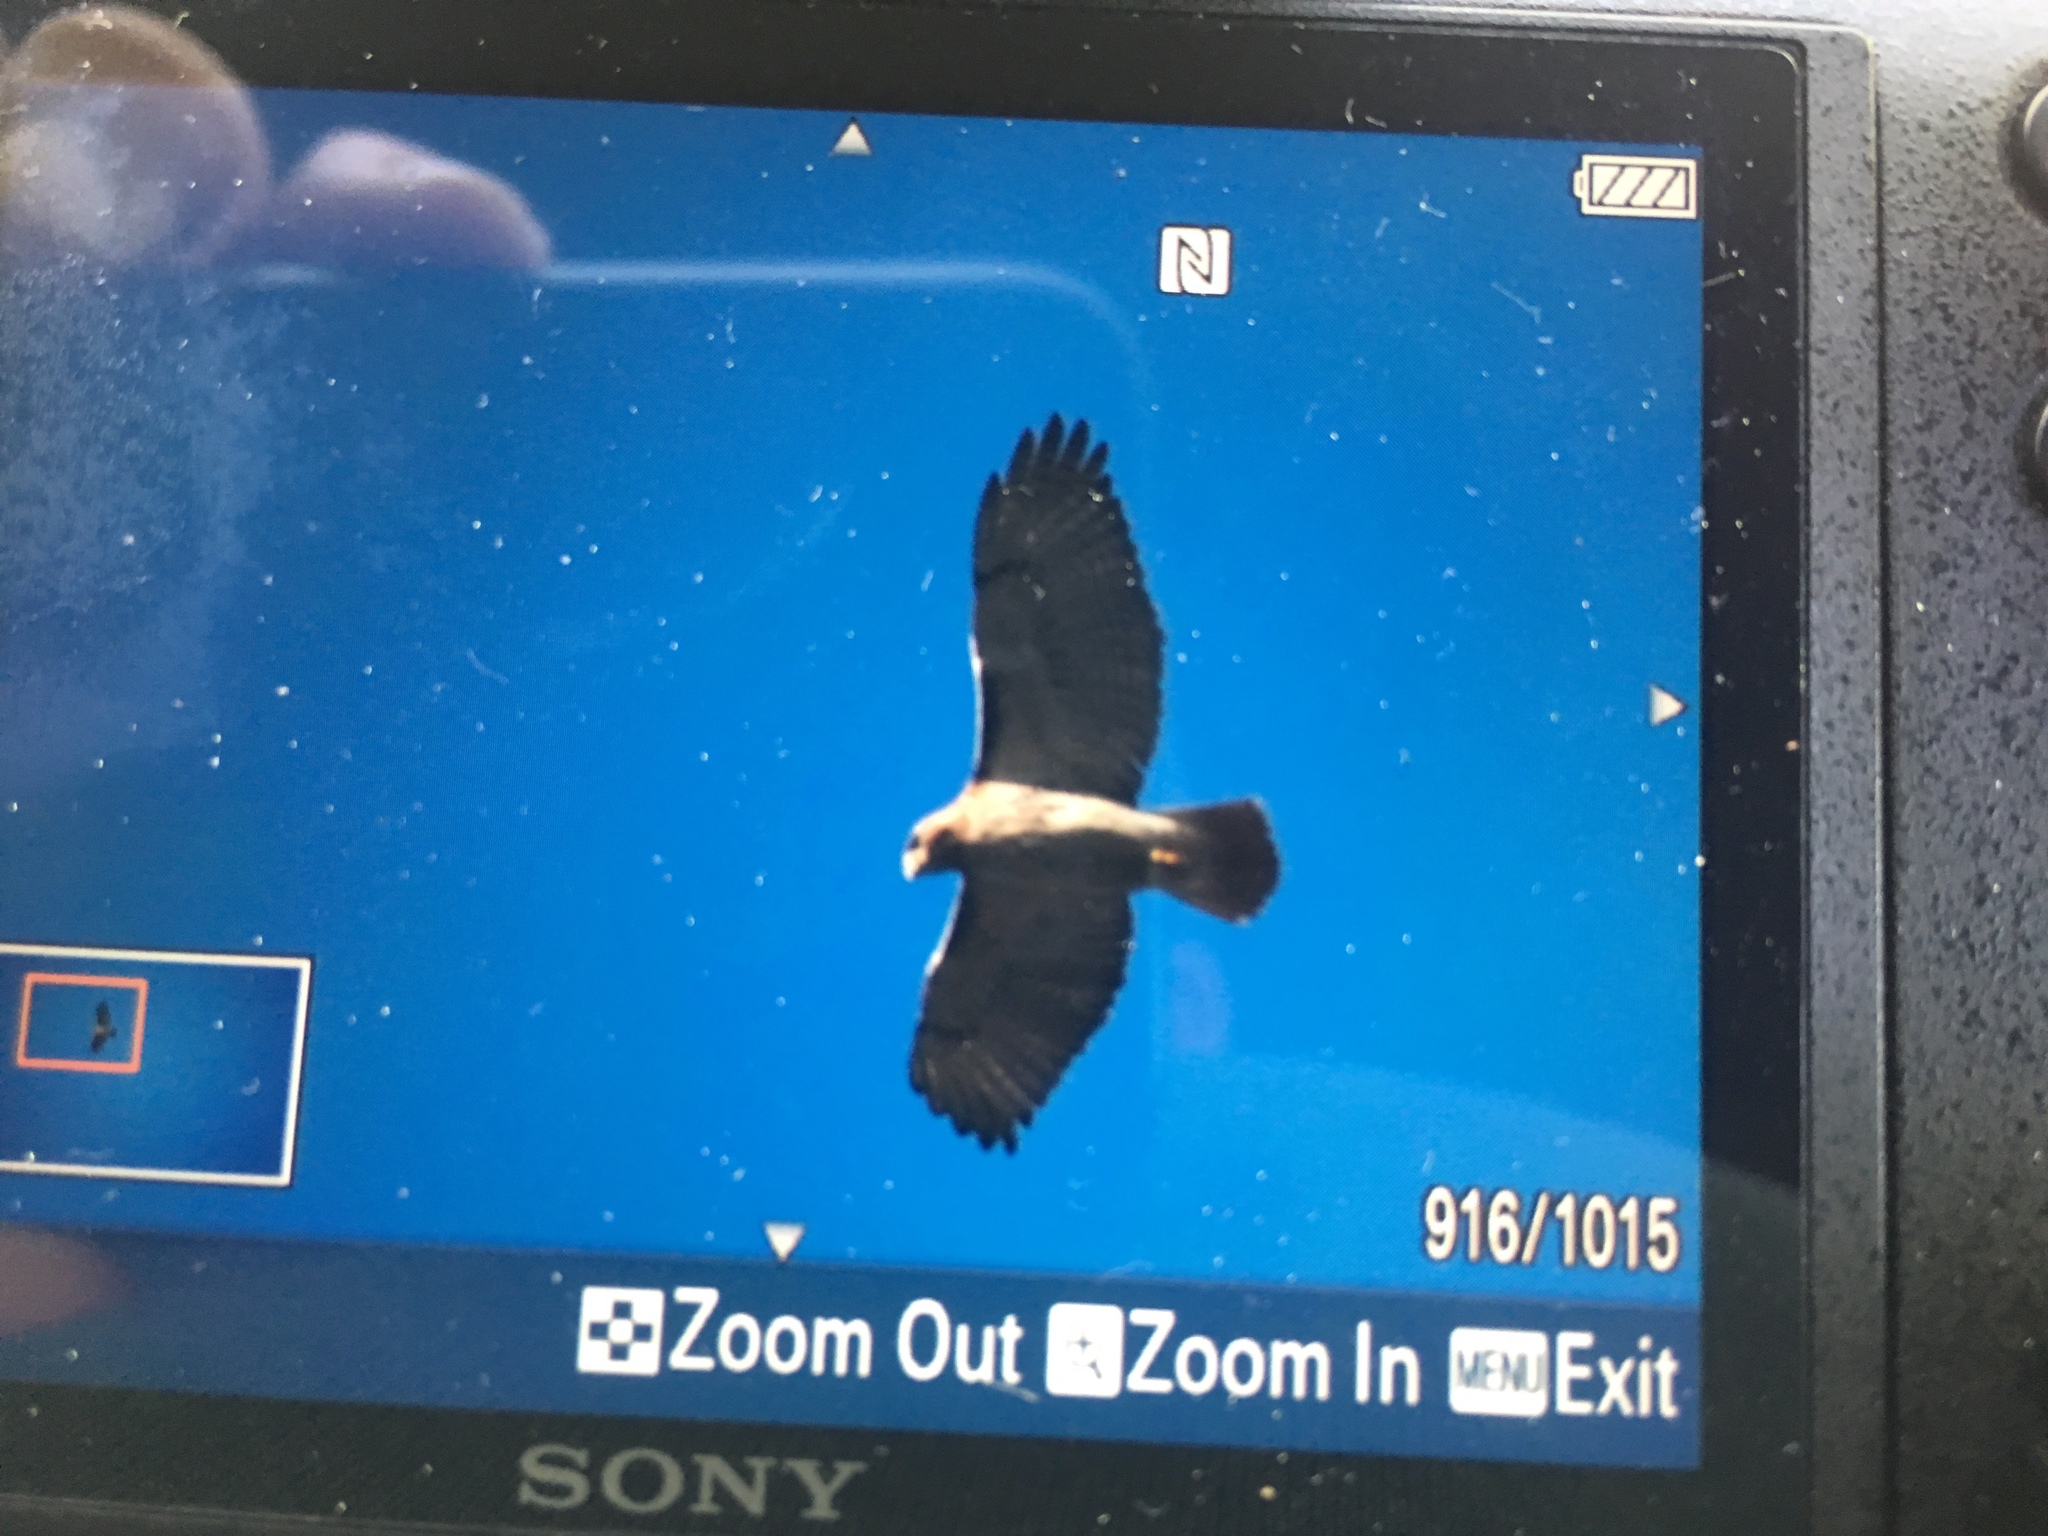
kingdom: Animalia
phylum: Chordata
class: Aves
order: Accipitriformes
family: Accipitridae
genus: Buteo
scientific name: Buteo jamaicensis
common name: Red-tailed hawk
